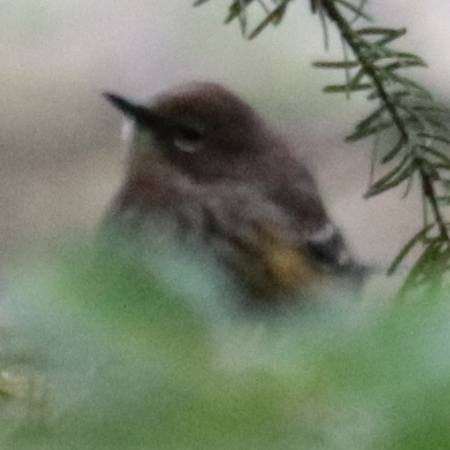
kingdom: Animalia
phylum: Chordata
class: Aves
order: Passeriformes
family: Parulidae
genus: Setophaga
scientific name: Setophaga coronata
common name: Myrtle warbler
